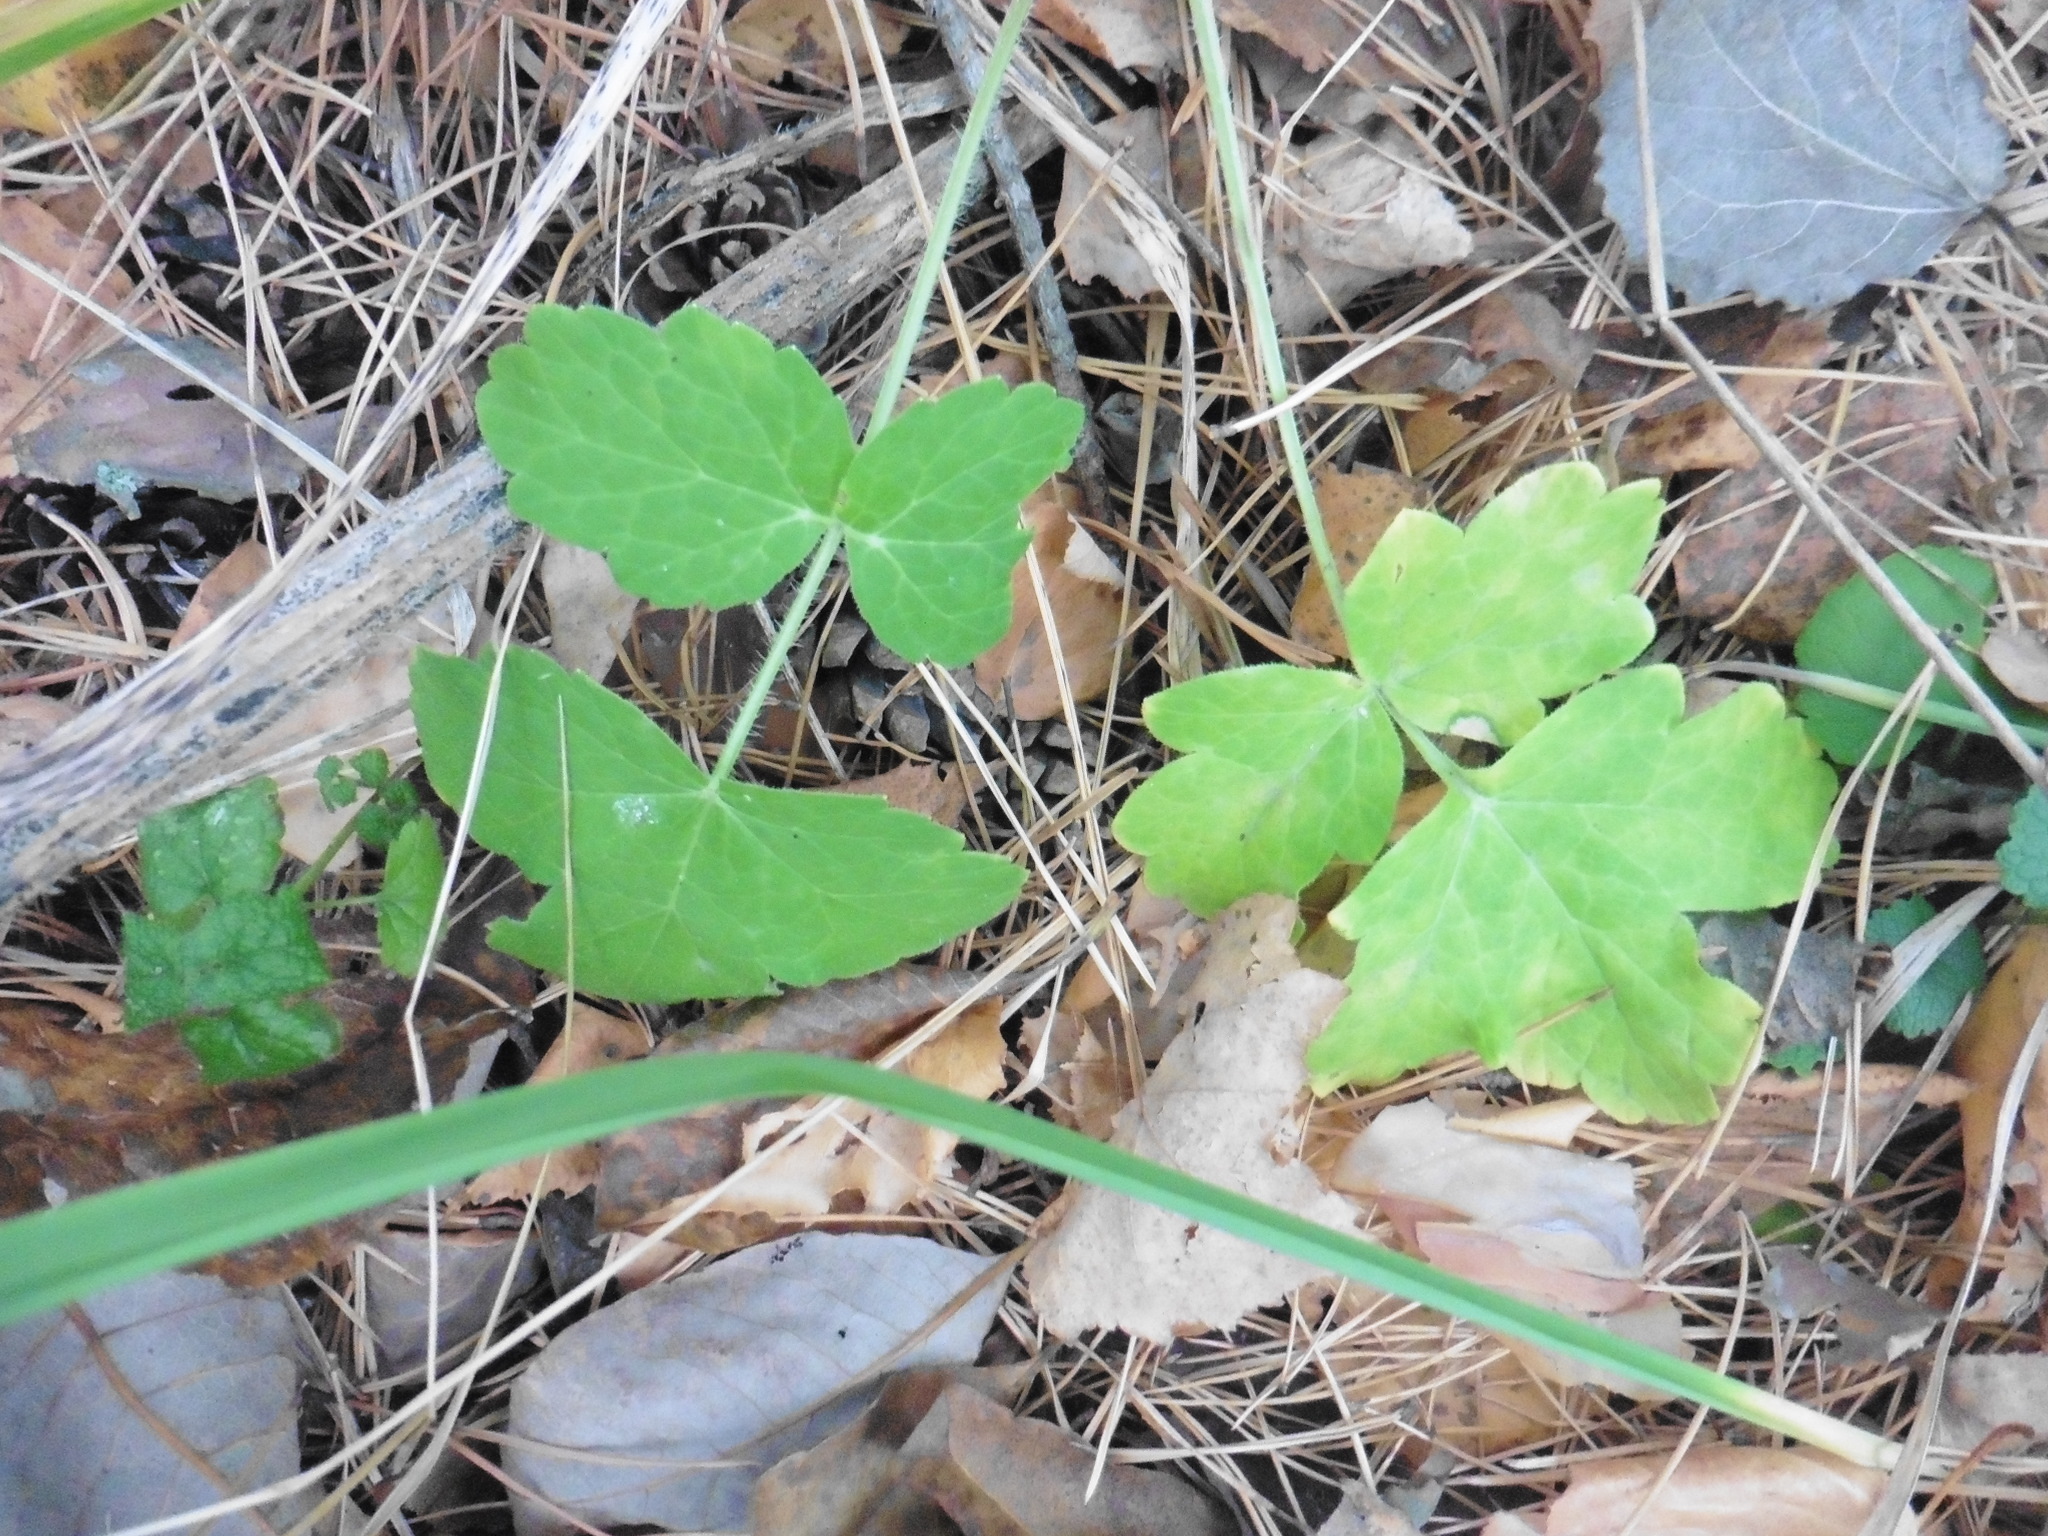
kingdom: Plantae
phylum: Tracheophyta
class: Magnoliopsida
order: Apiales
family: Apiaceae
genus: Heracleum
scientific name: Heracleum sphondylium
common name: Hogweed
